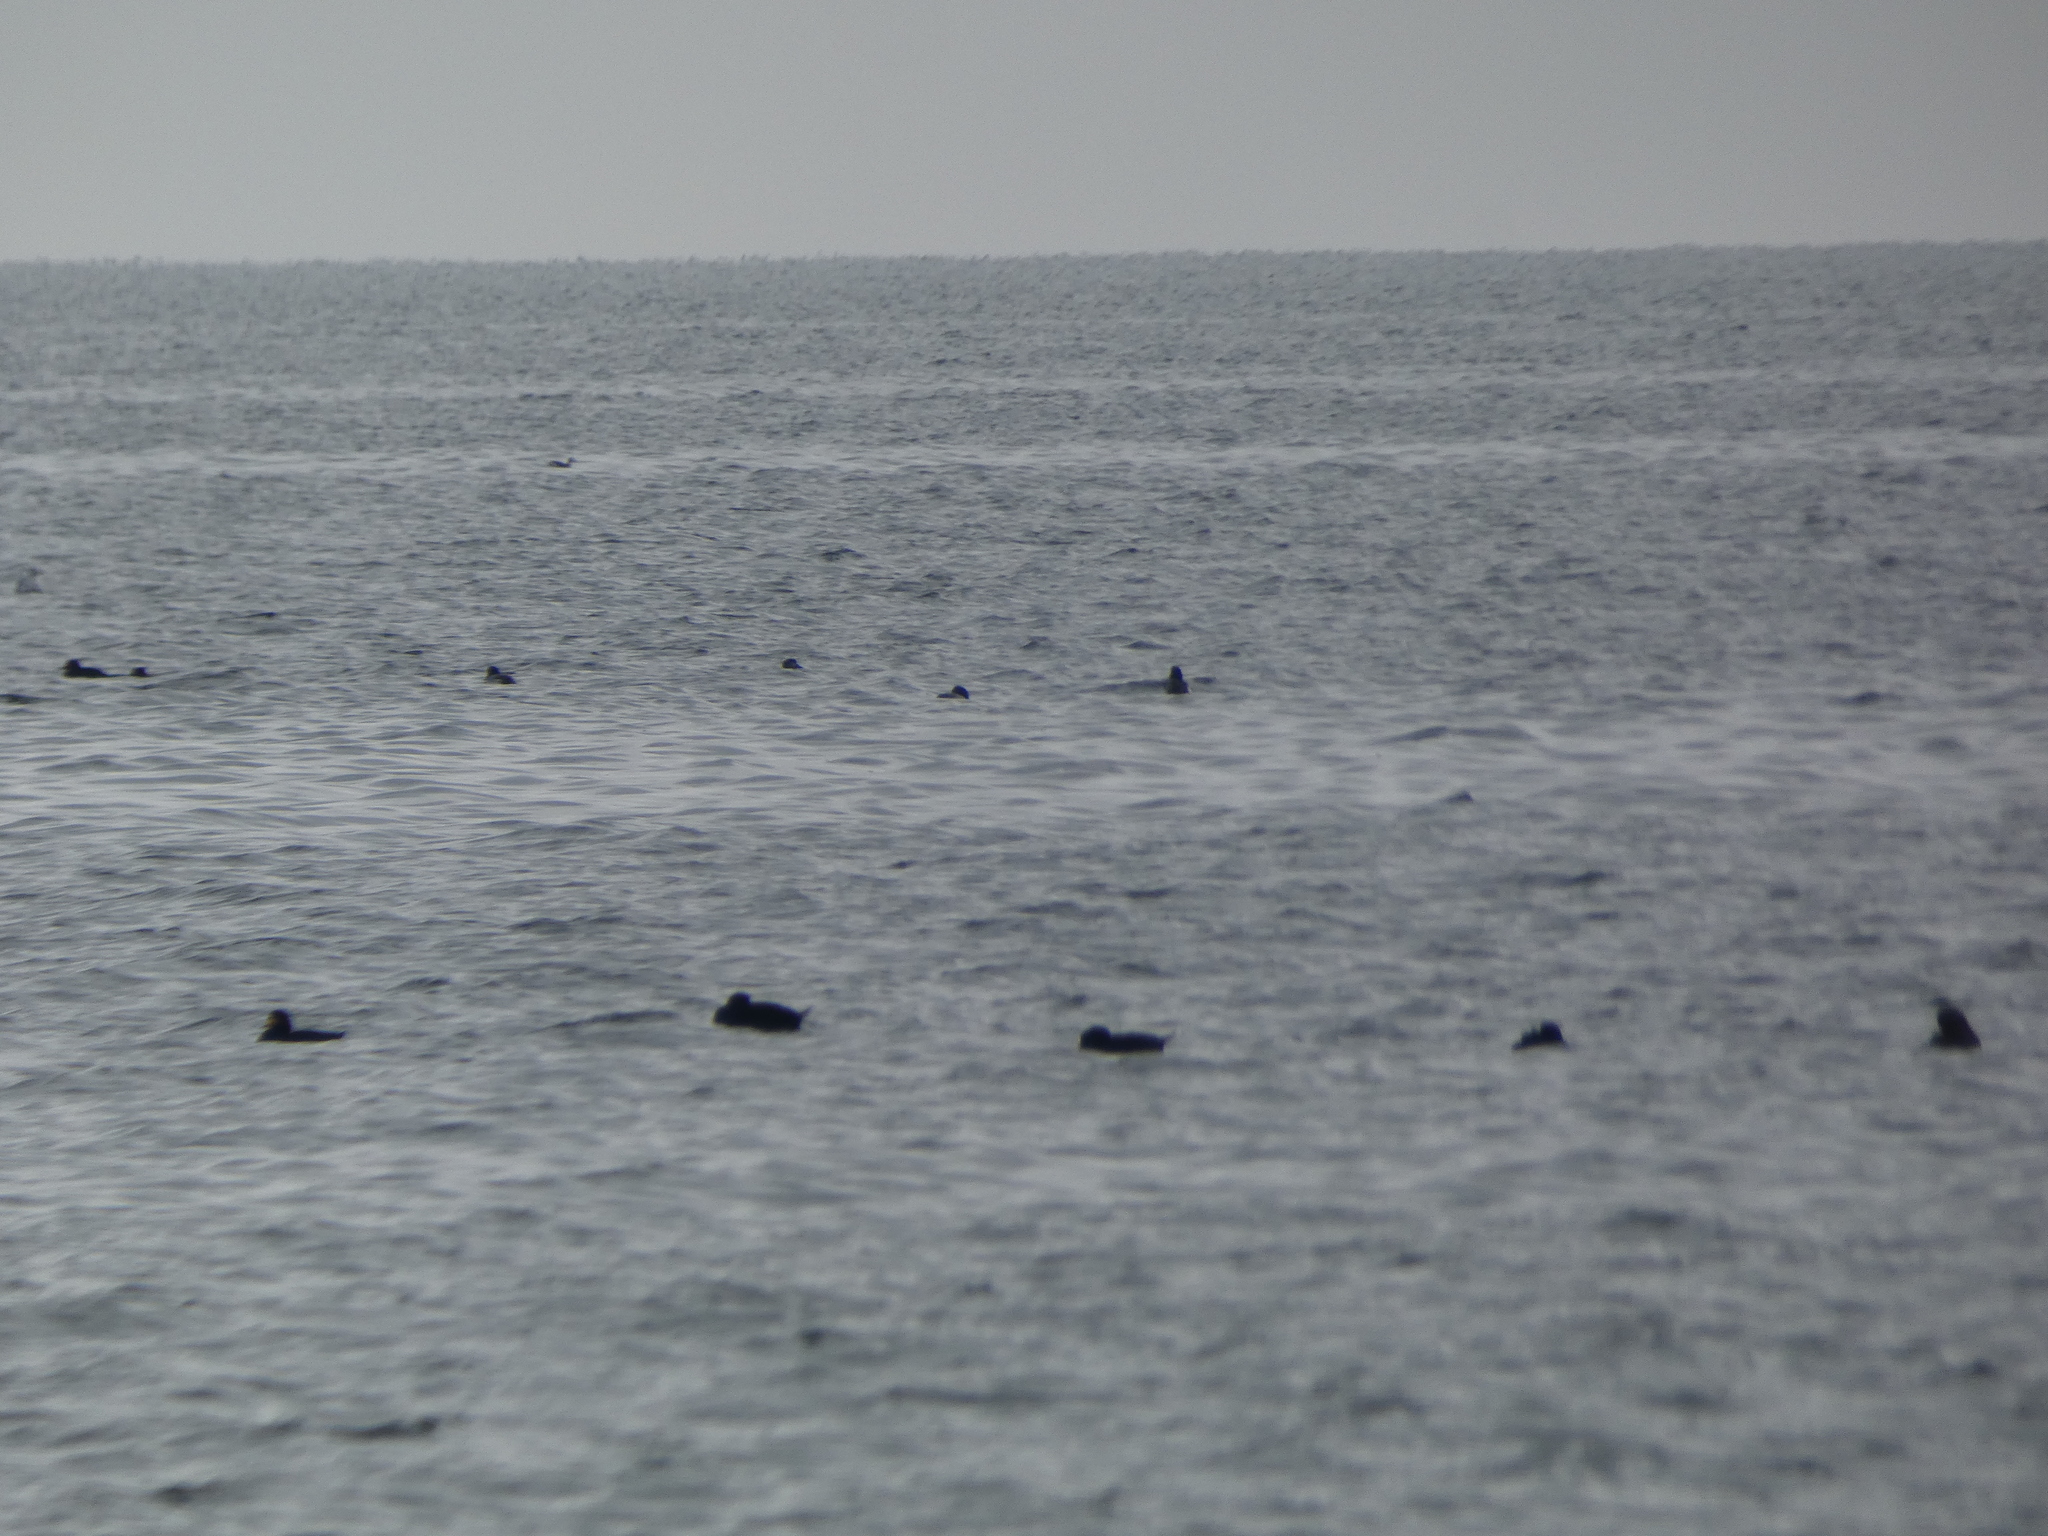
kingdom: Animalia
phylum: Chordata
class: Aves
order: Anseriformes
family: Anatidae
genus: Melanitta
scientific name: Melanitta americana
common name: Black scoter
